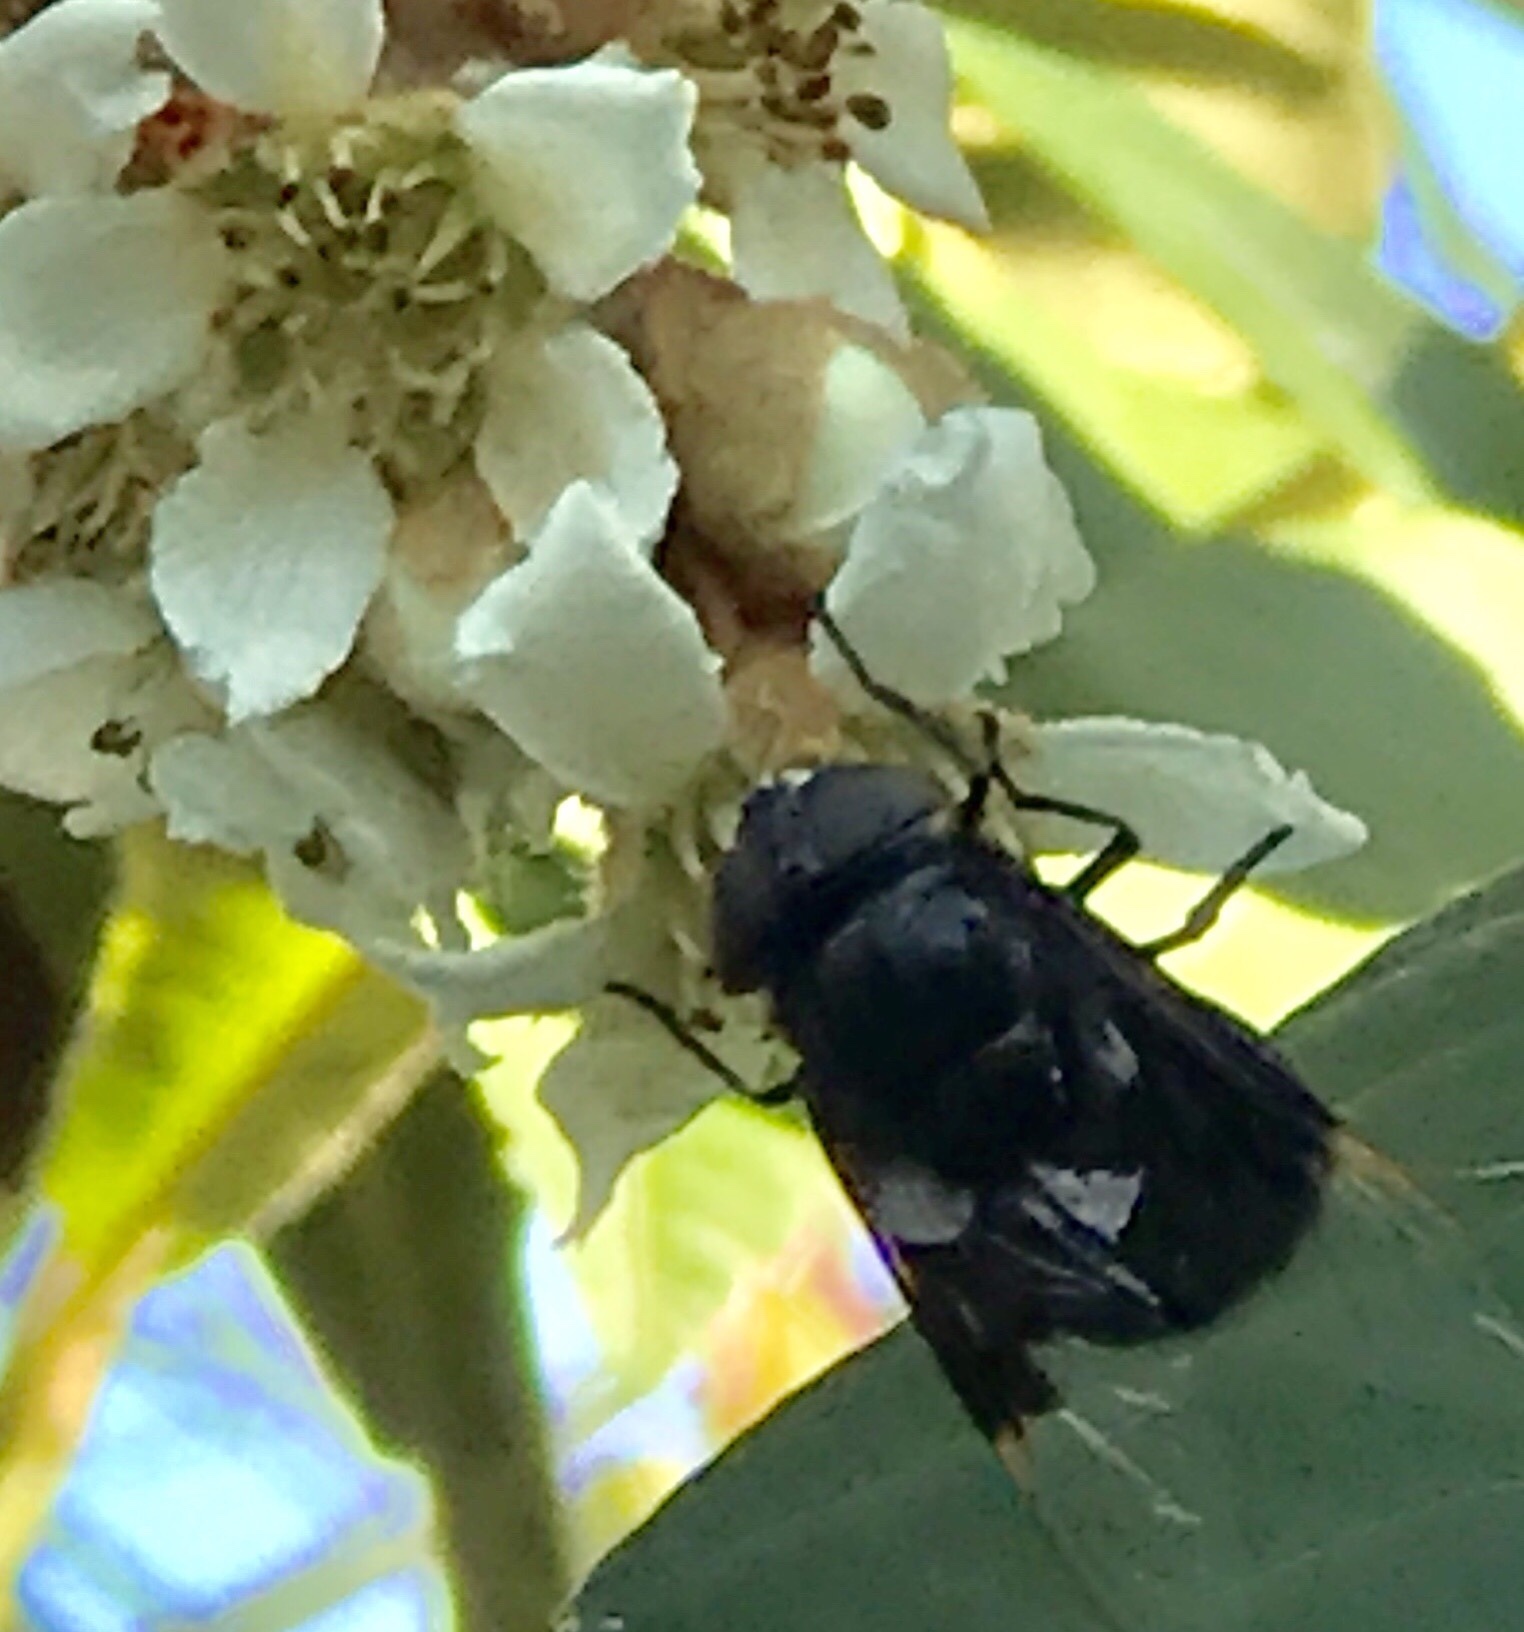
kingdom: Animalia
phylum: Arthropoda
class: Insecta
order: Diptera
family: Syrphidae
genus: Copestylum
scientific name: Copestylum mexicanum
